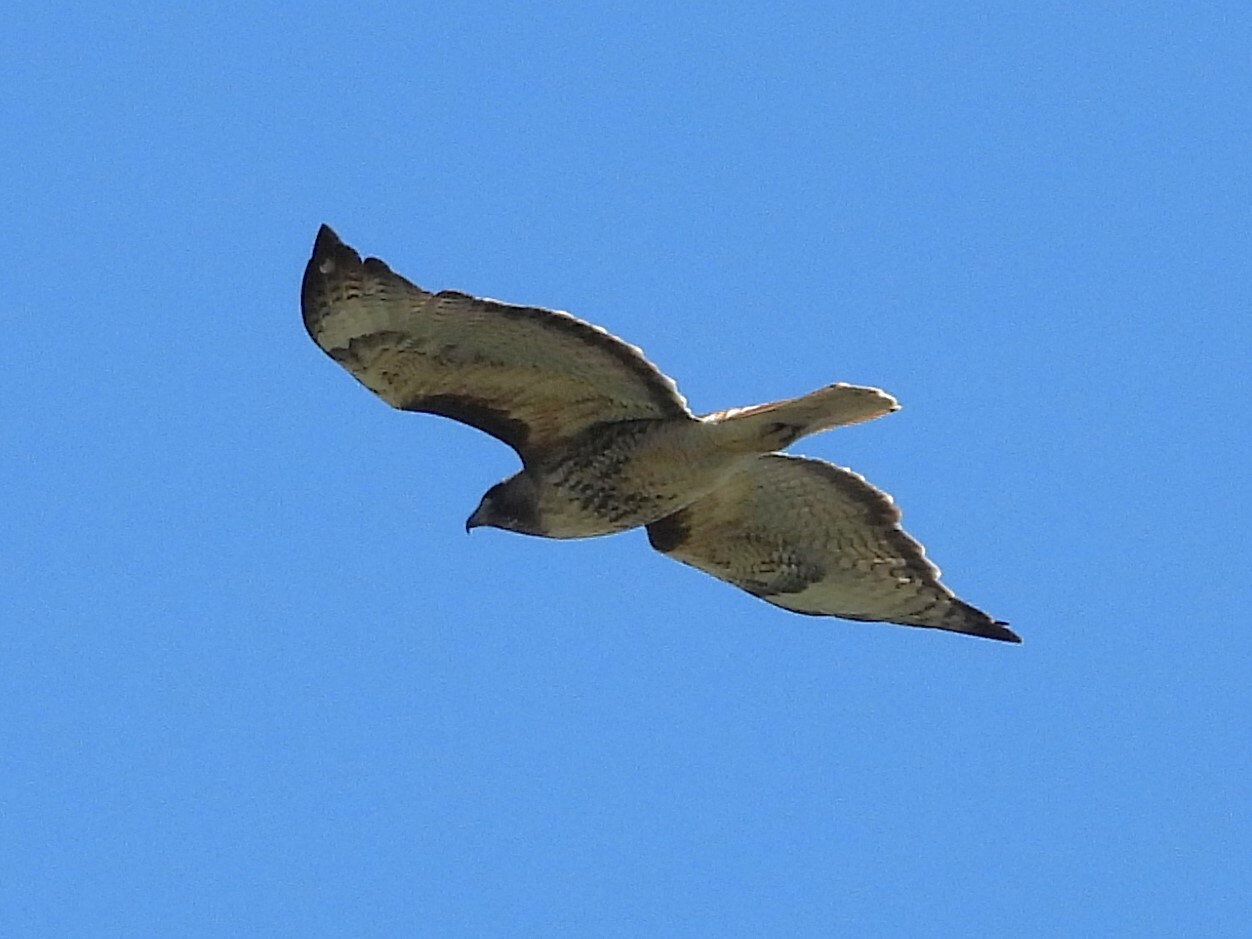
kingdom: Animalia
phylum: Chordata
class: Aves
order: Accipitriformes
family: Accipitridae
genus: Buteo
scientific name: Buteo jamaicensis
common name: Red-tailed hawk
